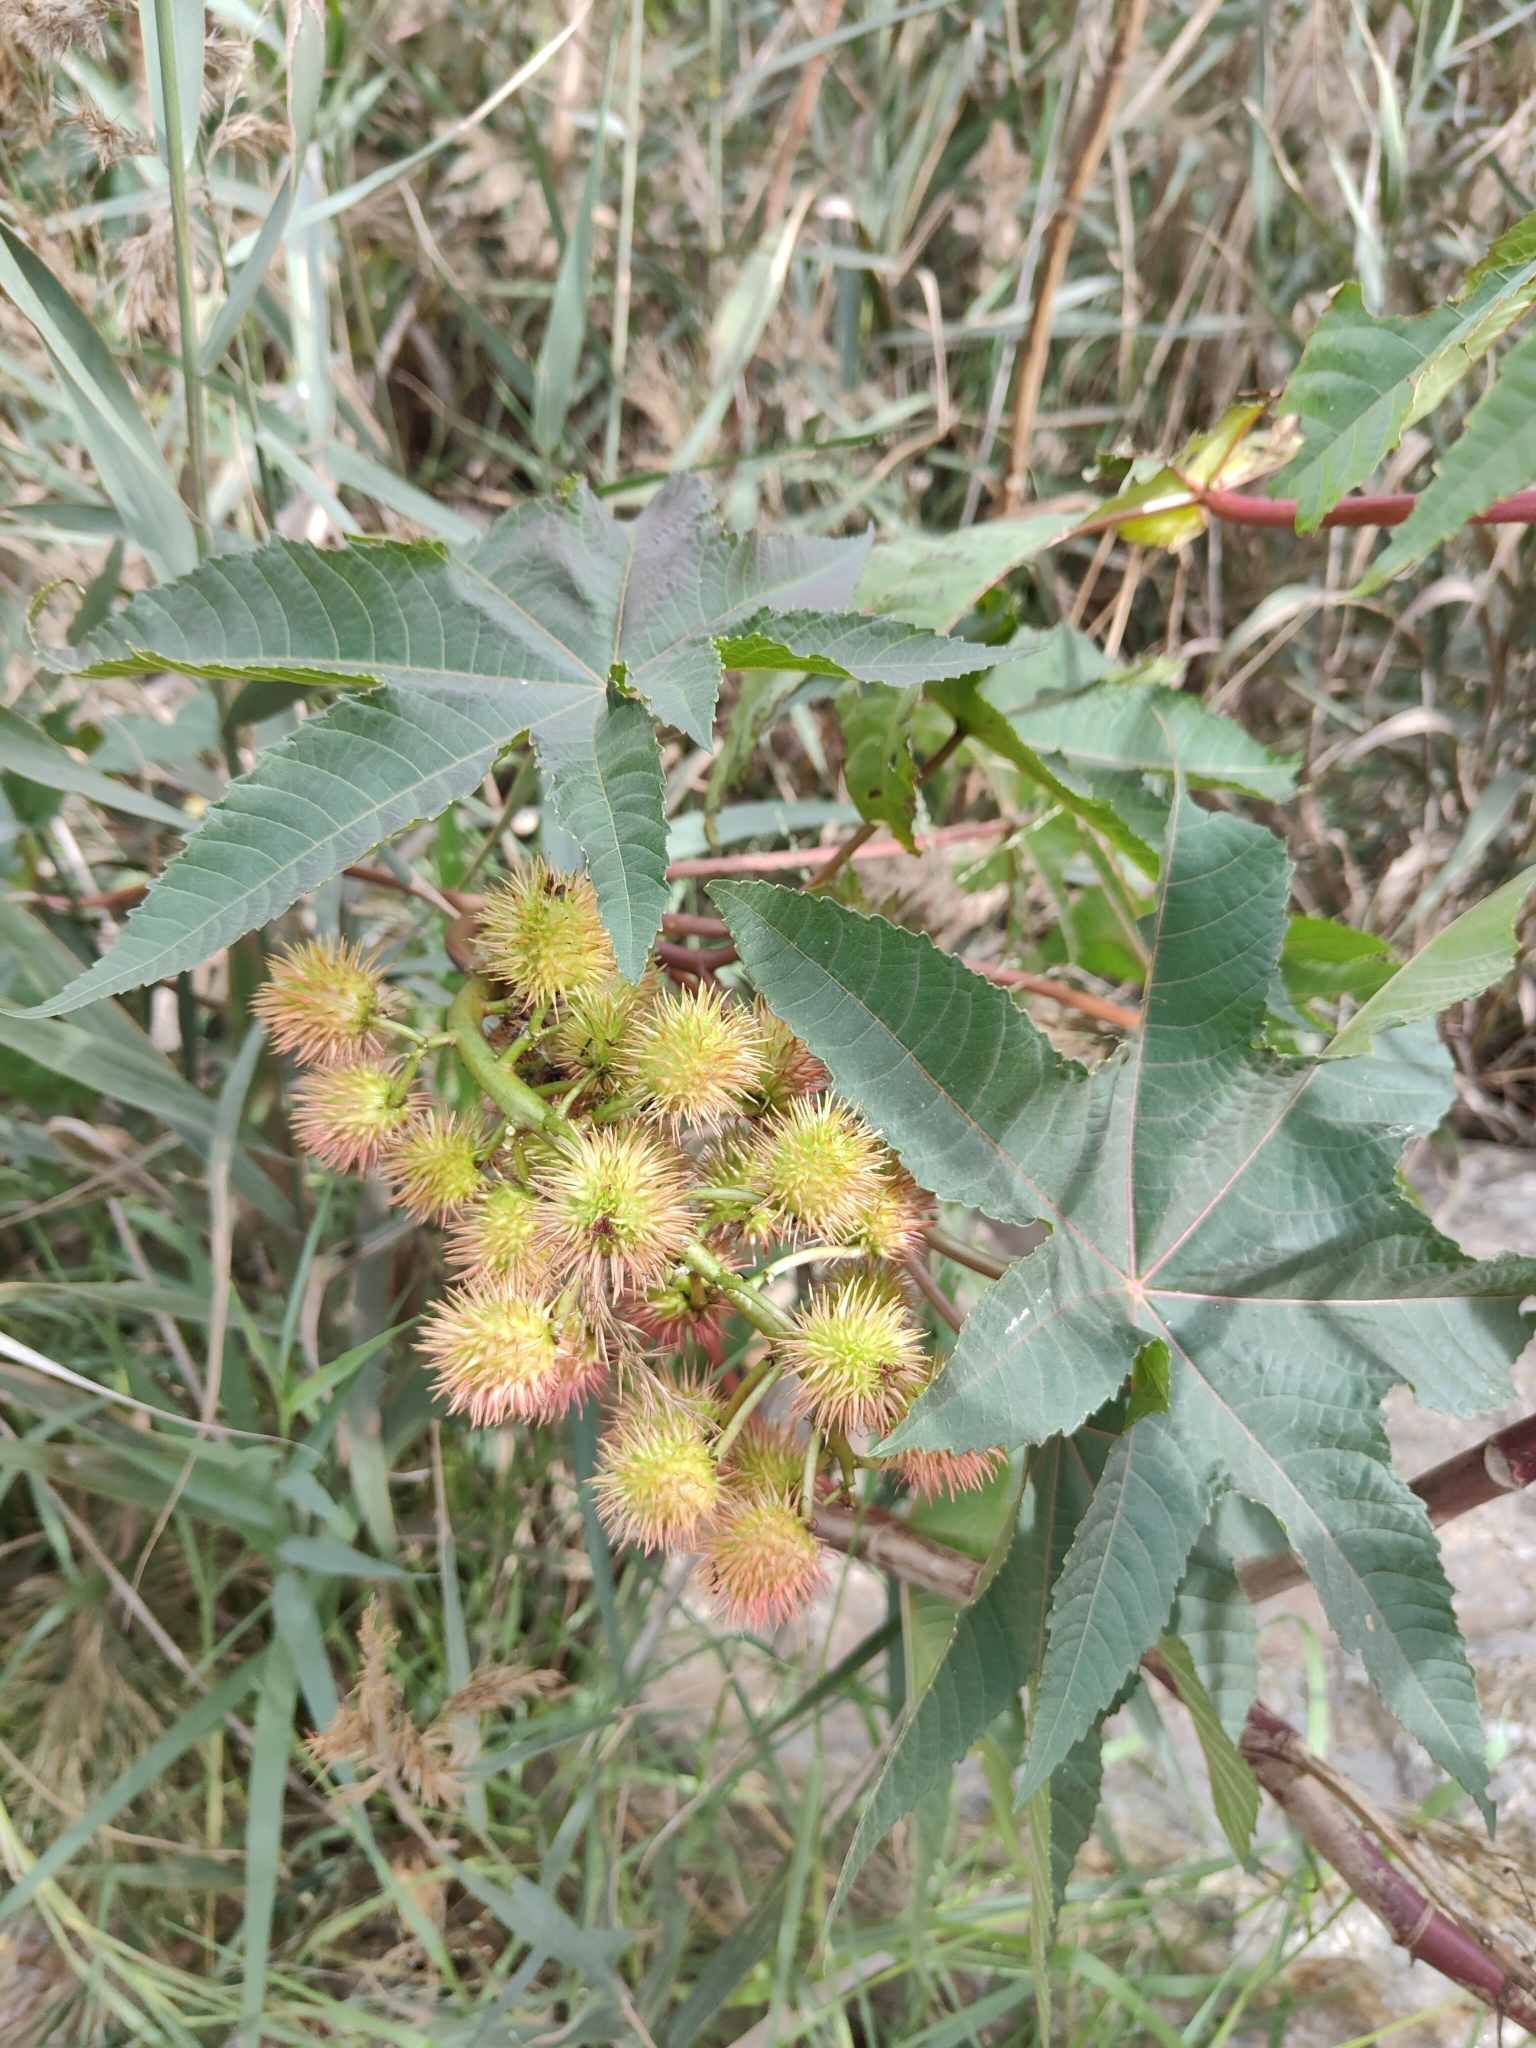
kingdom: Plantae
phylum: Tracheophyta
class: Magnoliopsida
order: Malpighiales
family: Euphorbiaceae
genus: Ricinus
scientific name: Ricinus communis
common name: Castor-oil-plant
